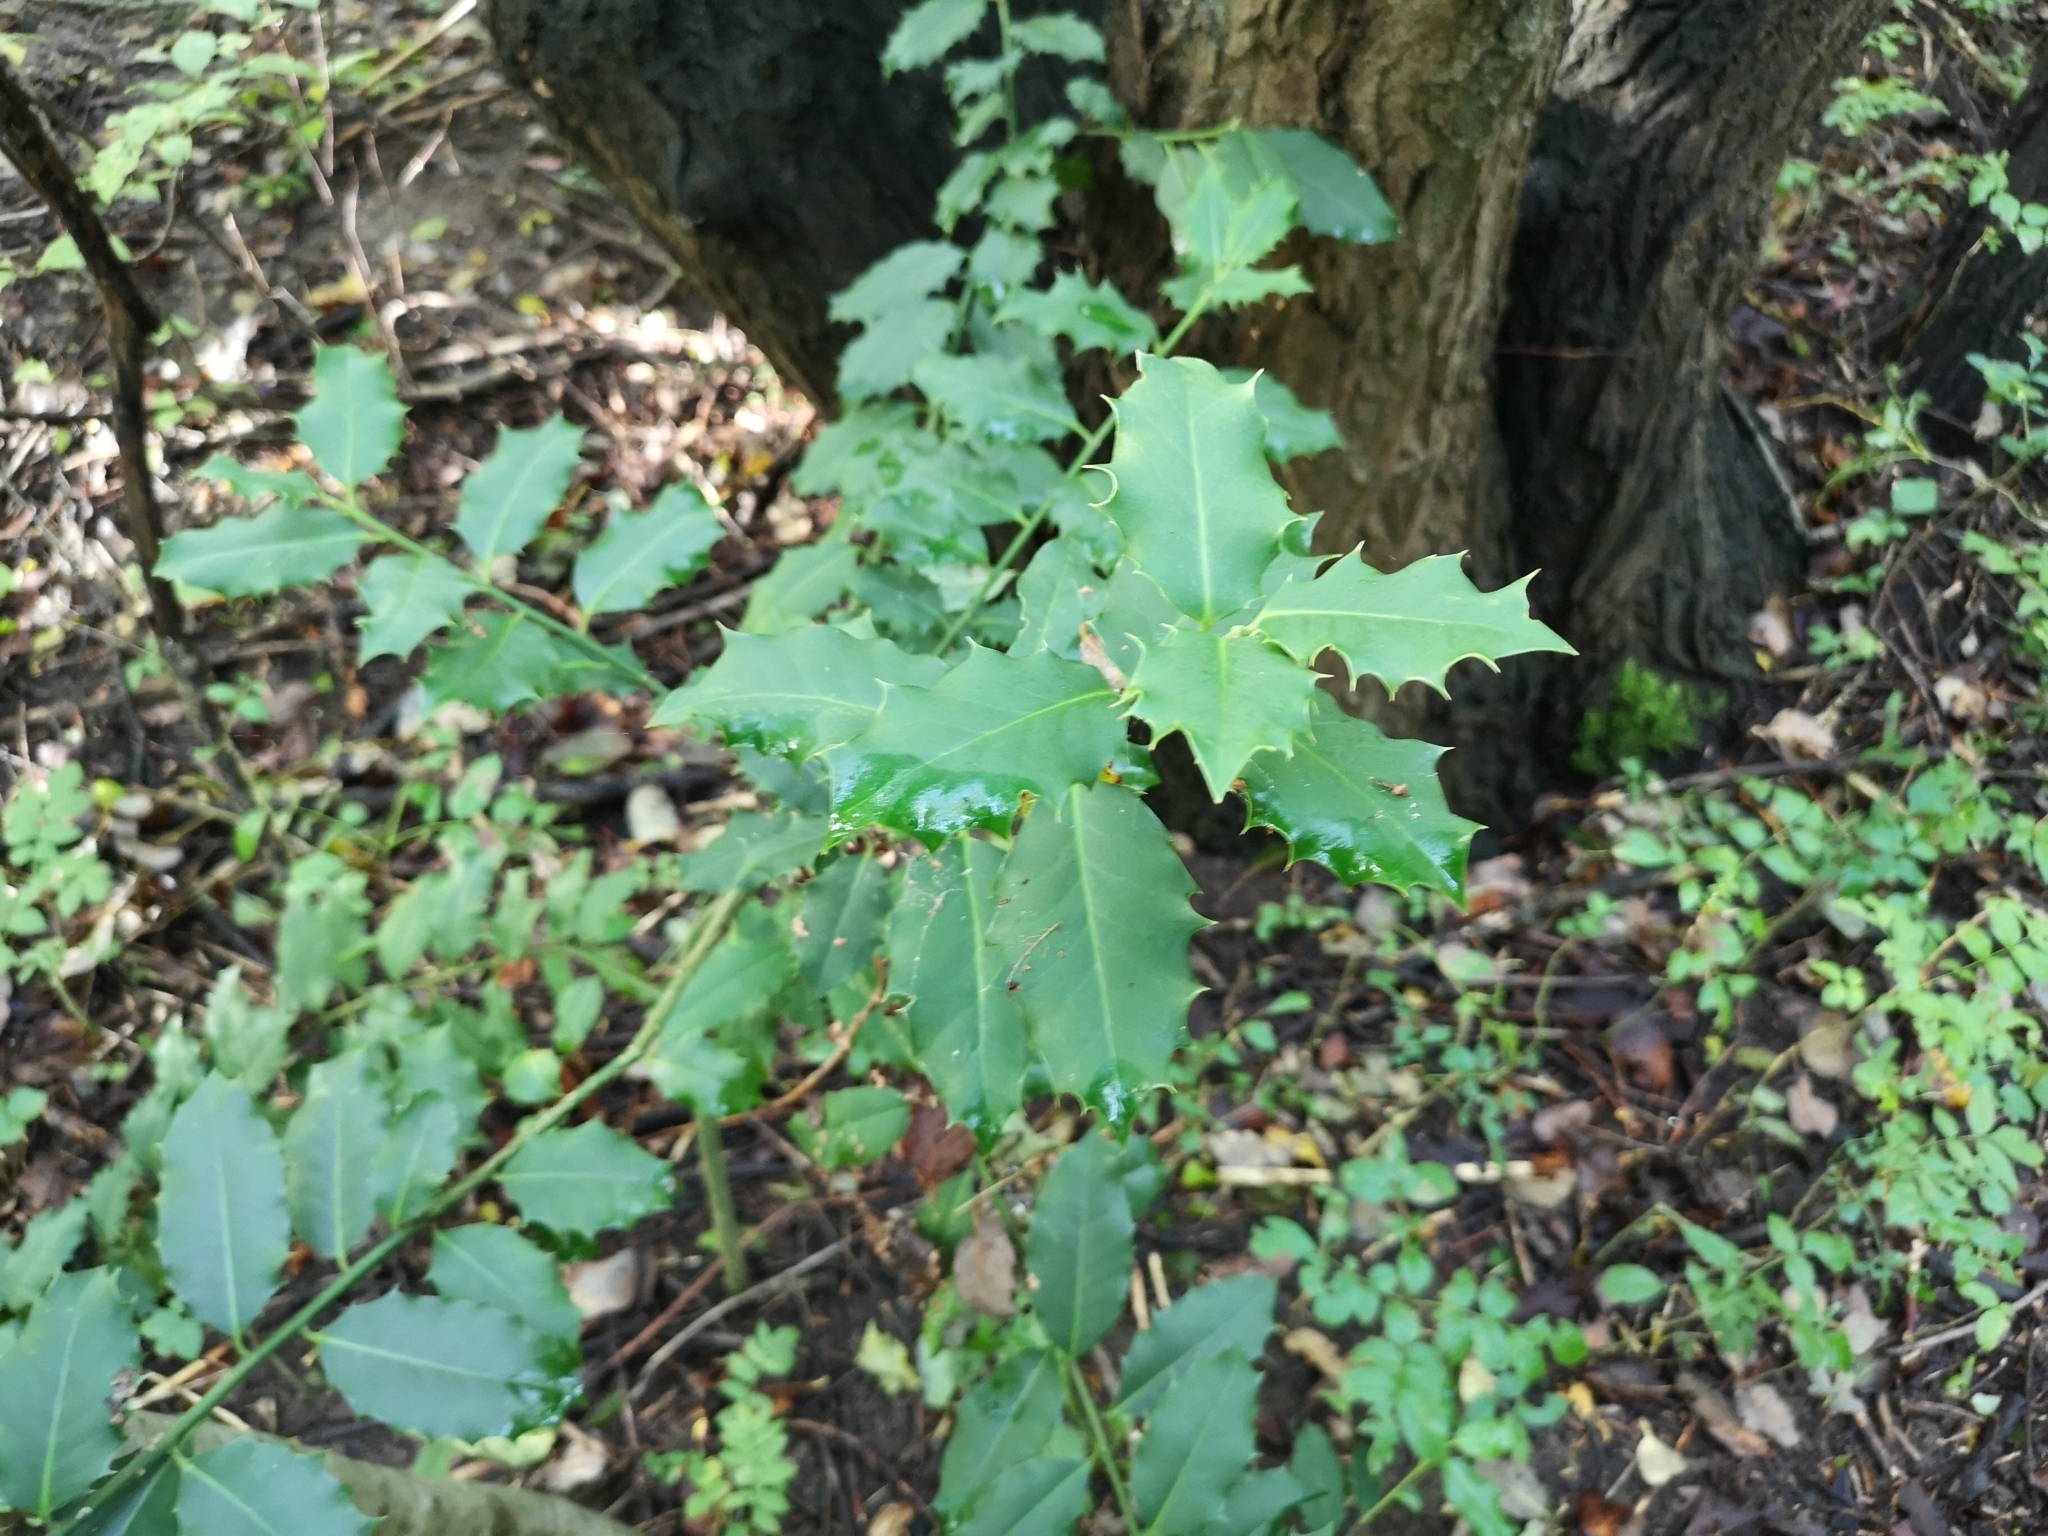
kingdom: Plantae
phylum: Tracheophyta
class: Magnoliopsida
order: Aquifoliales
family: Aquifoliaceae
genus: Ilex
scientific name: Ilex aquifolium
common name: English holly
